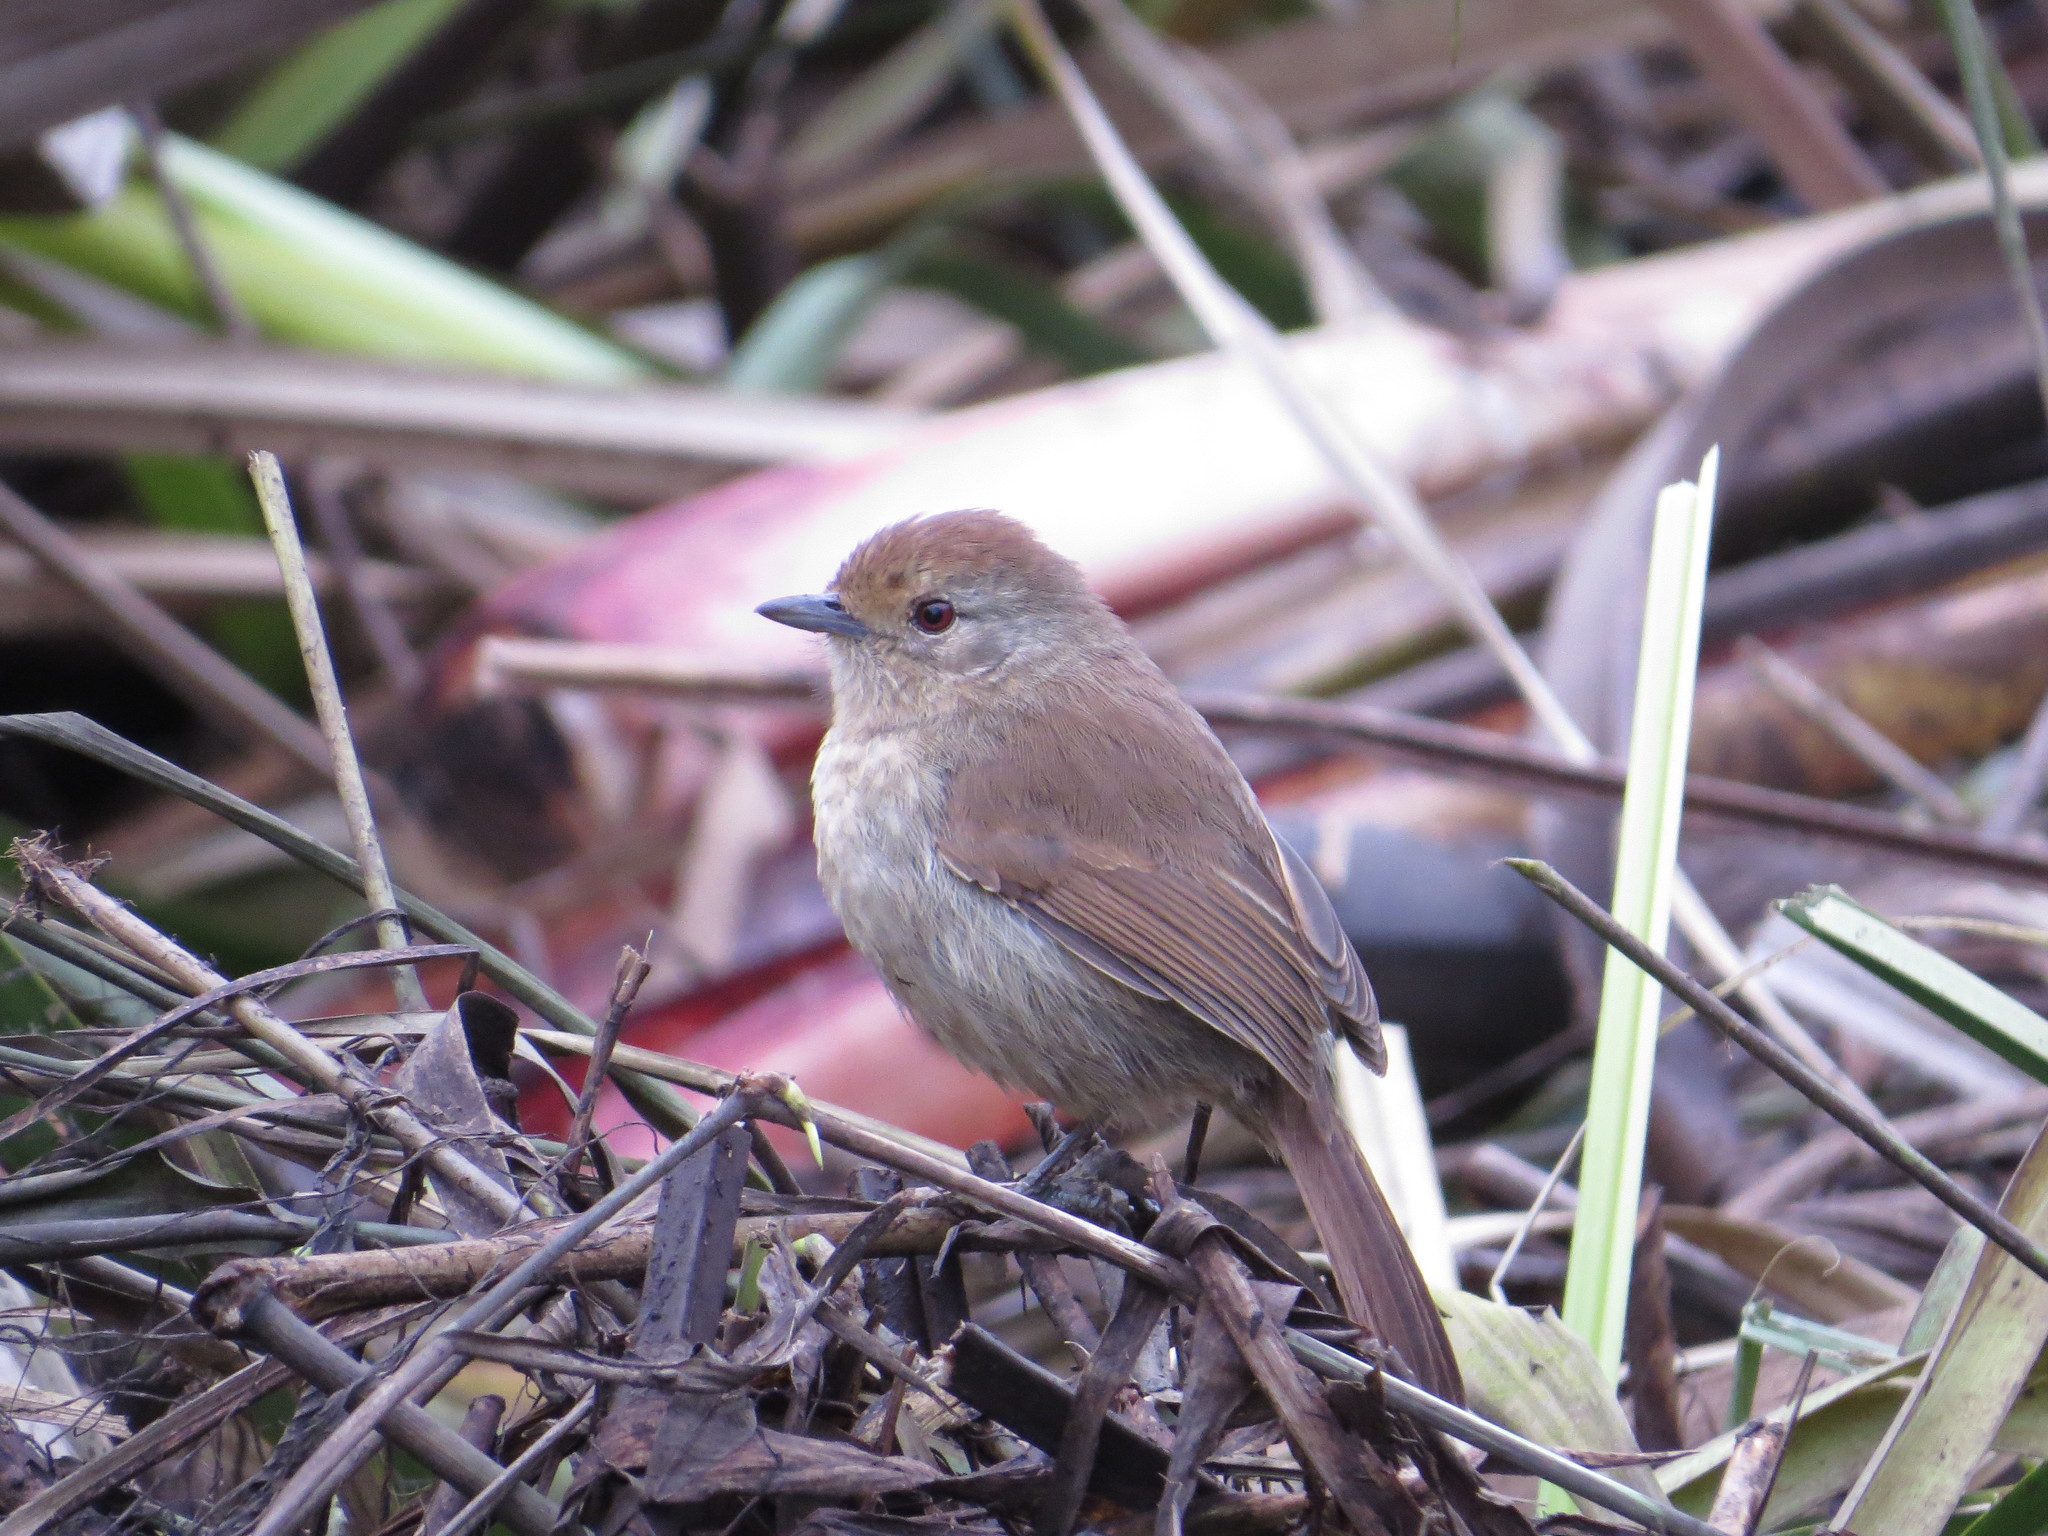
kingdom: Animalia
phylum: Chordata
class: Aves
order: Passeriformes
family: Thamnophilidae
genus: Thamnophilus
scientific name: Thamnophilus ruficapillus
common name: Rufous-capped antshrike
